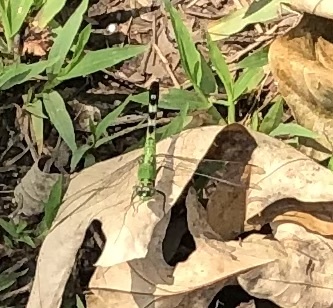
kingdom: Animalia
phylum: Arthropoda
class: Insecta
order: Odonata
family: Libellulidae
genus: Erythemis
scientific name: Erythemis simplicicollis
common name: Eastern pondhawk
